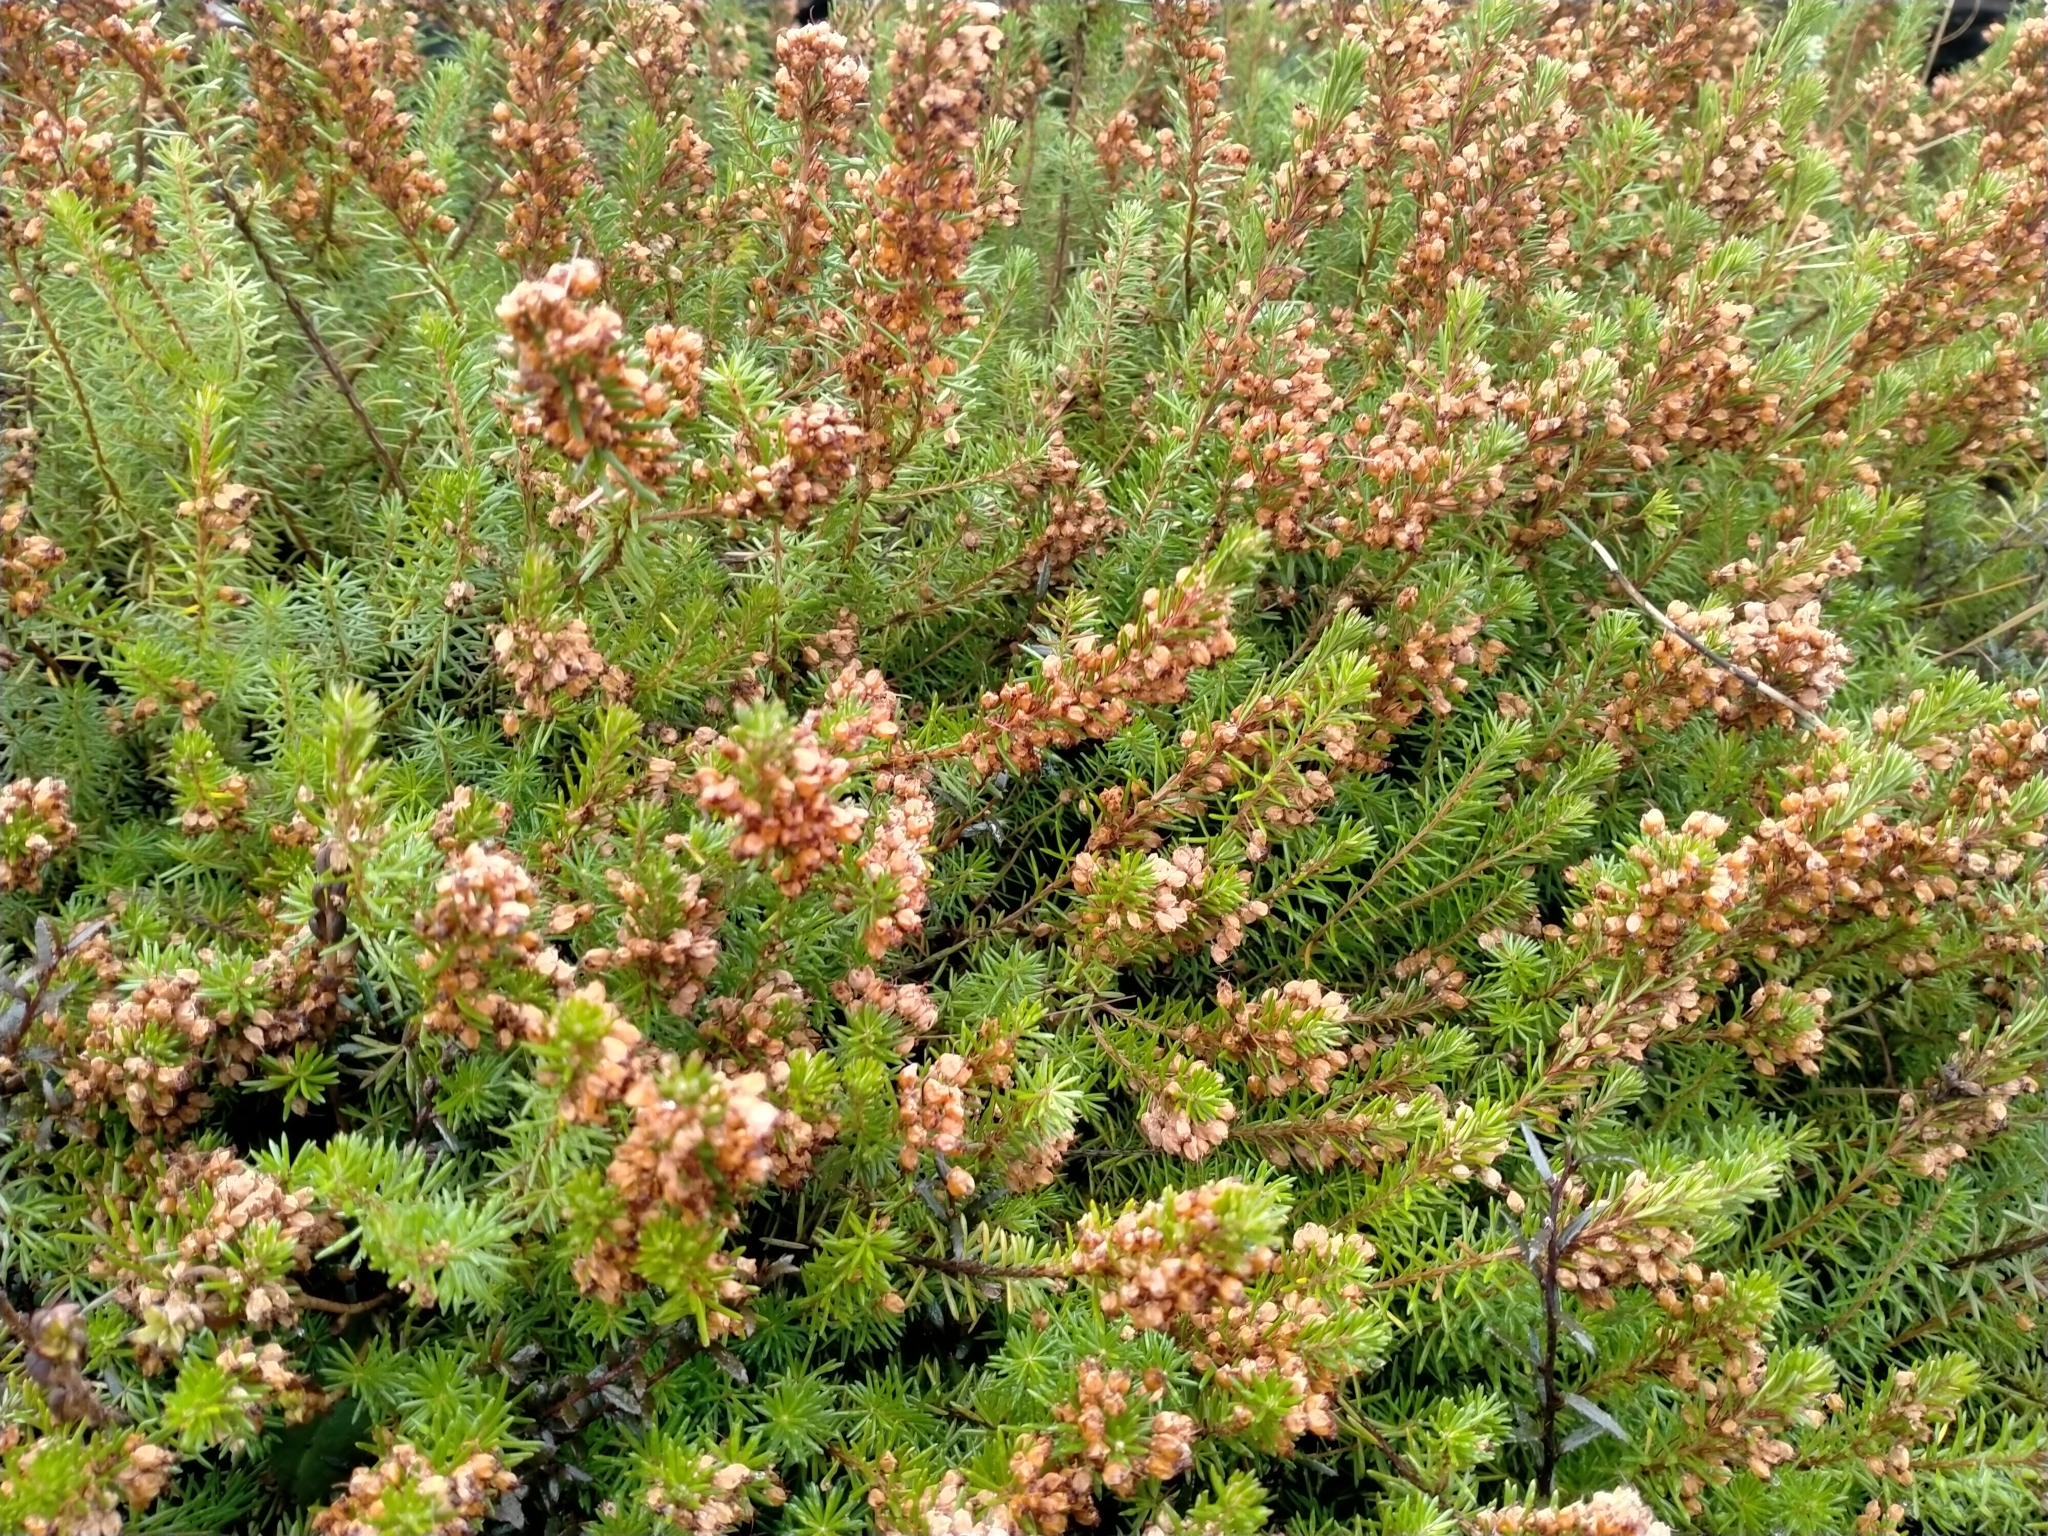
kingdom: Plantae
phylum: Tracheophyta
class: Magnoliopsida
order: Ericales
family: Ericaceae
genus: Erica
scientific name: Erica vagans
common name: Cornish heath
